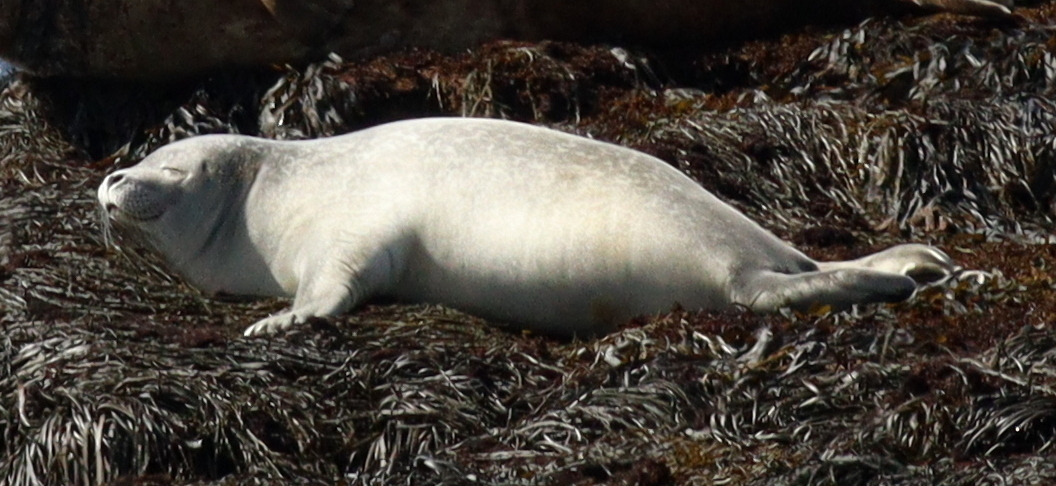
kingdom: Animalia
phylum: Chordata
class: Mammalia
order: Carnivora
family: Phocidae
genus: Phoca
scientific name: Phoca vitulina
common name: Harbor seal
